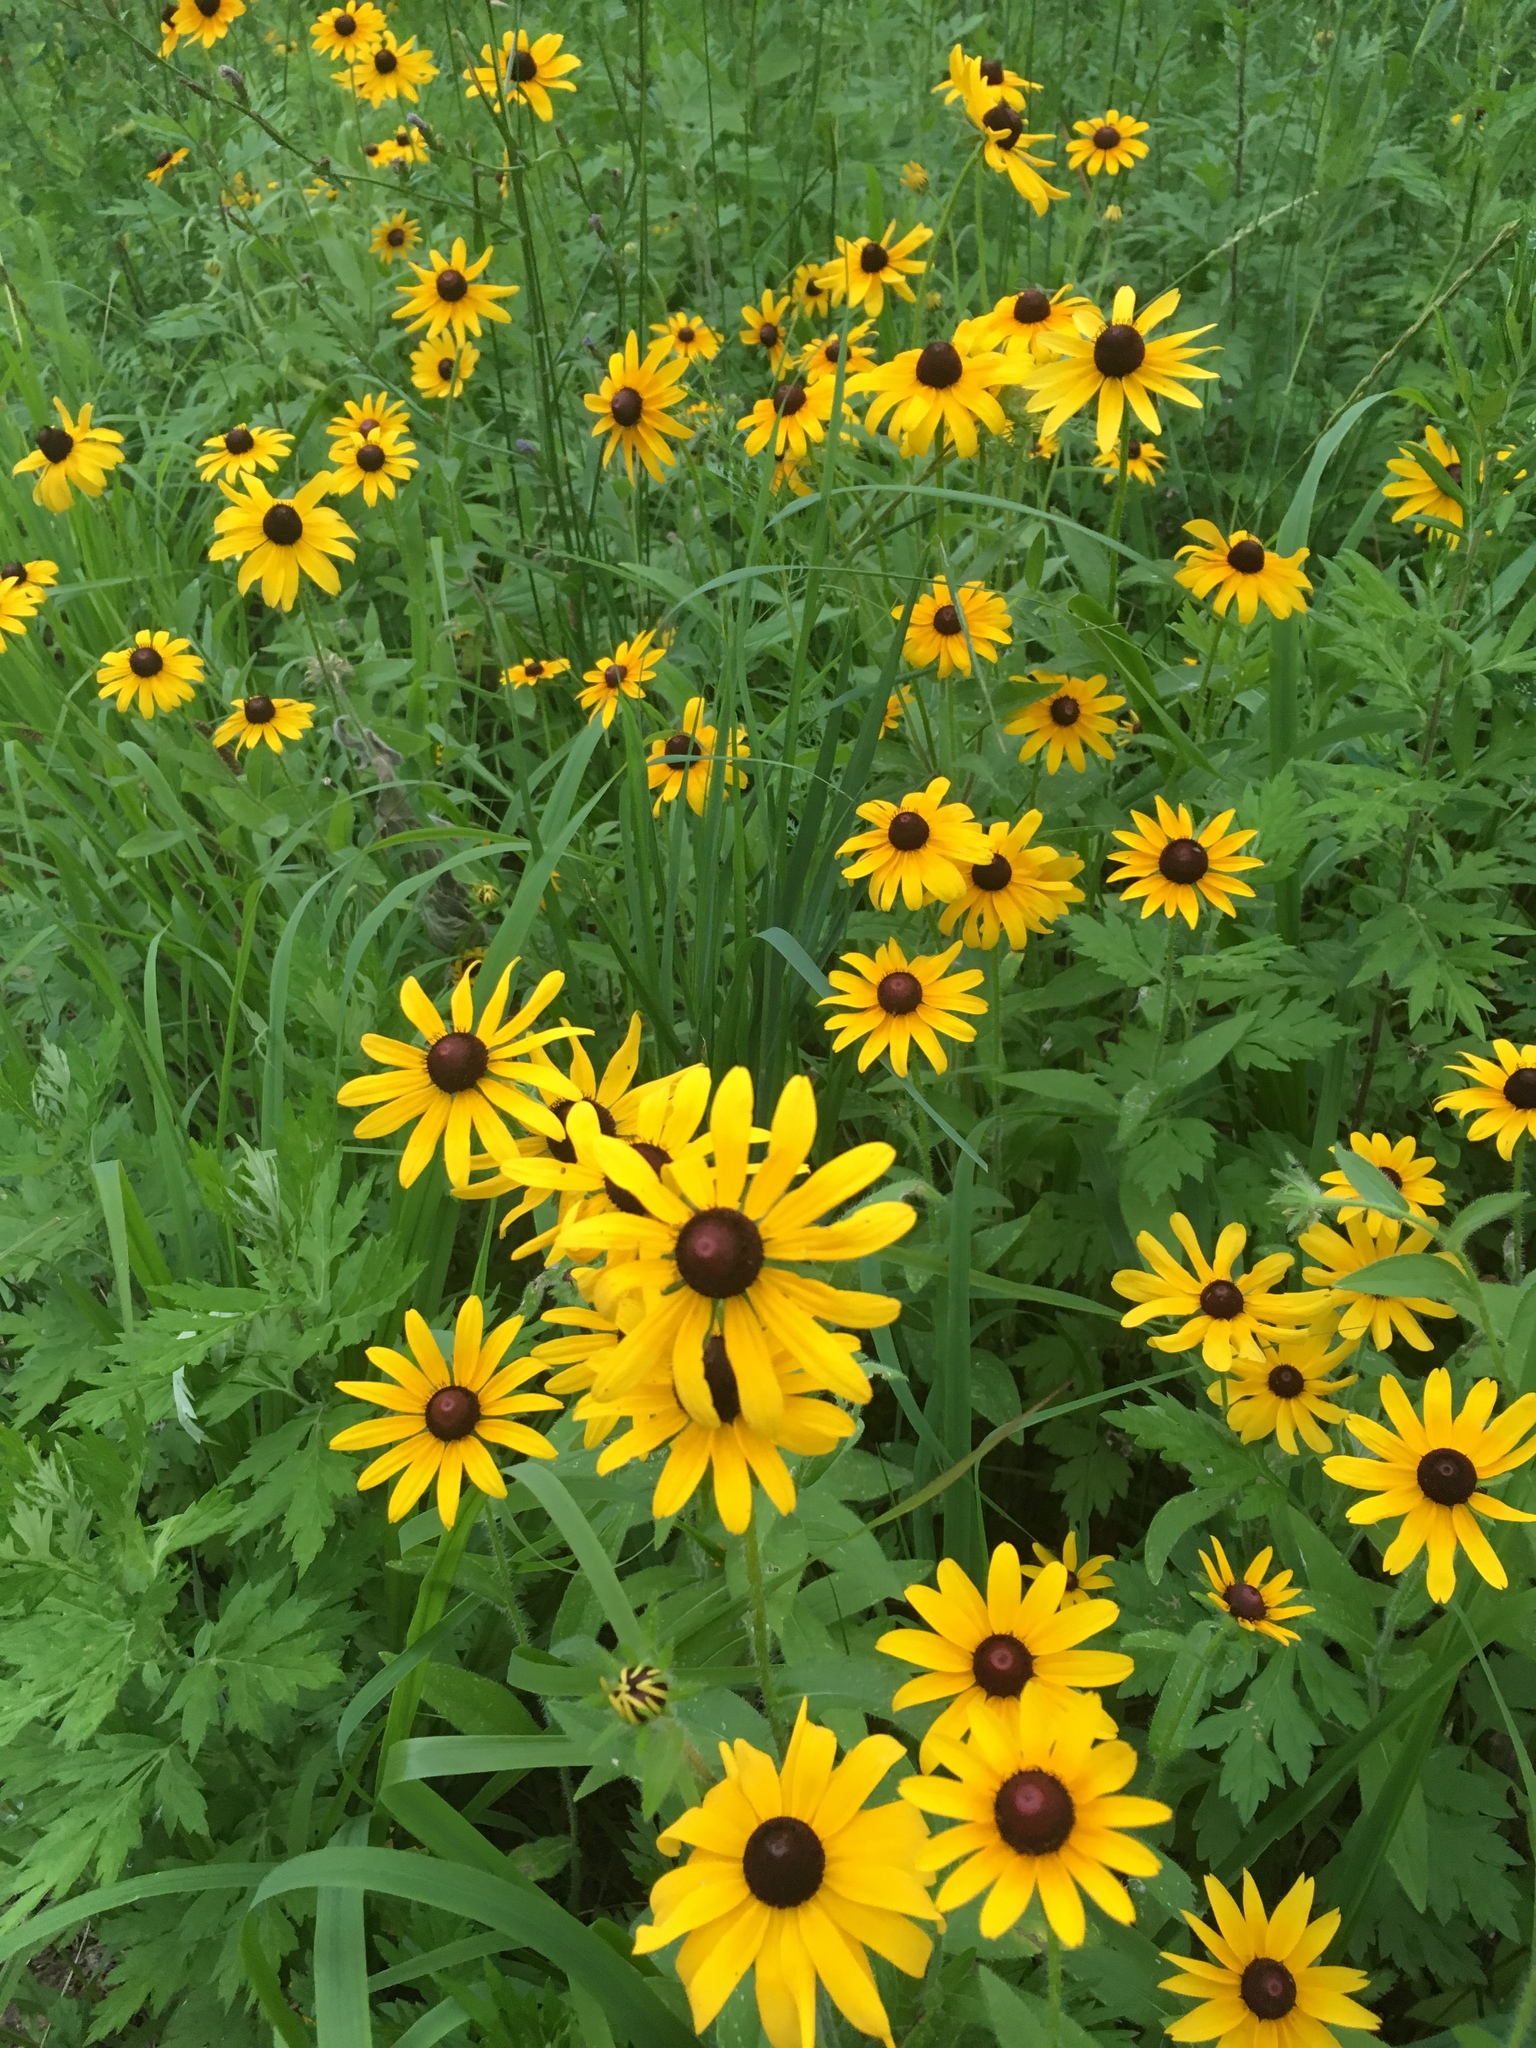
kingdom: Plantae
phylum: Tracheophyta
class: Magnoliopsida
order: Asterales
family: Asteraceae
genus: Rudbeckia
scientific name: Rudbeckia hirta
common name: Black-eyed-susan
